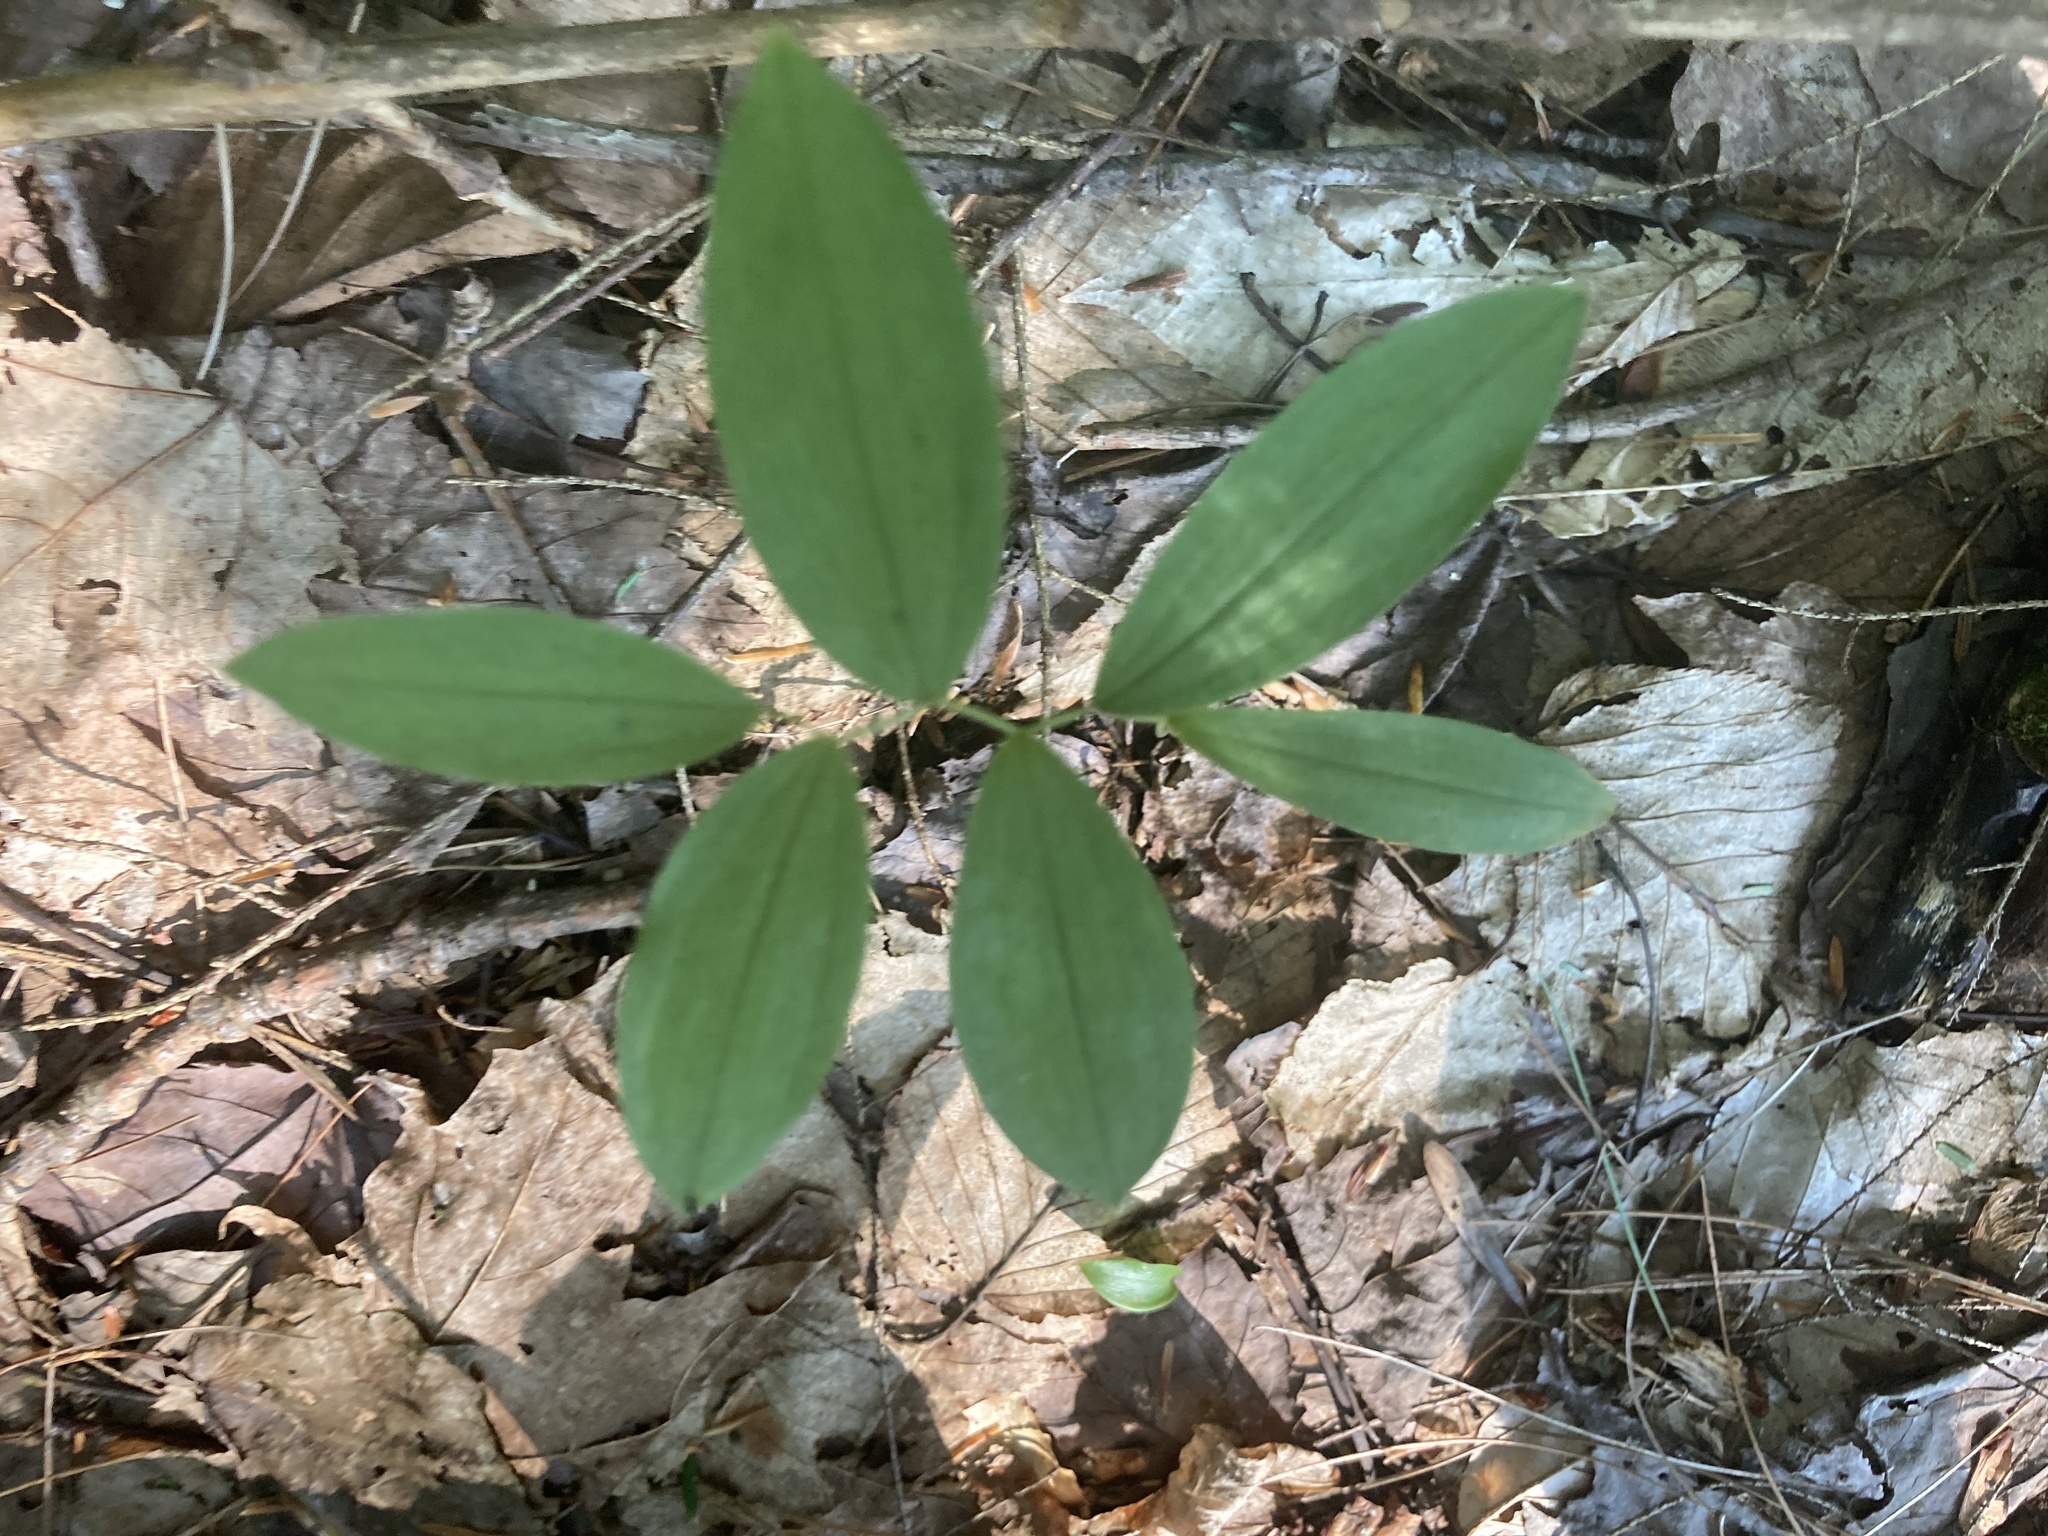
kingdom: Plantae
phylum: Tracheophyta
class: Liliopsida
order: Liliales
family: Colchicaceae
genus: Uvularia
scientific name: Uvularia sessilifolia
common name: Straw-lily
